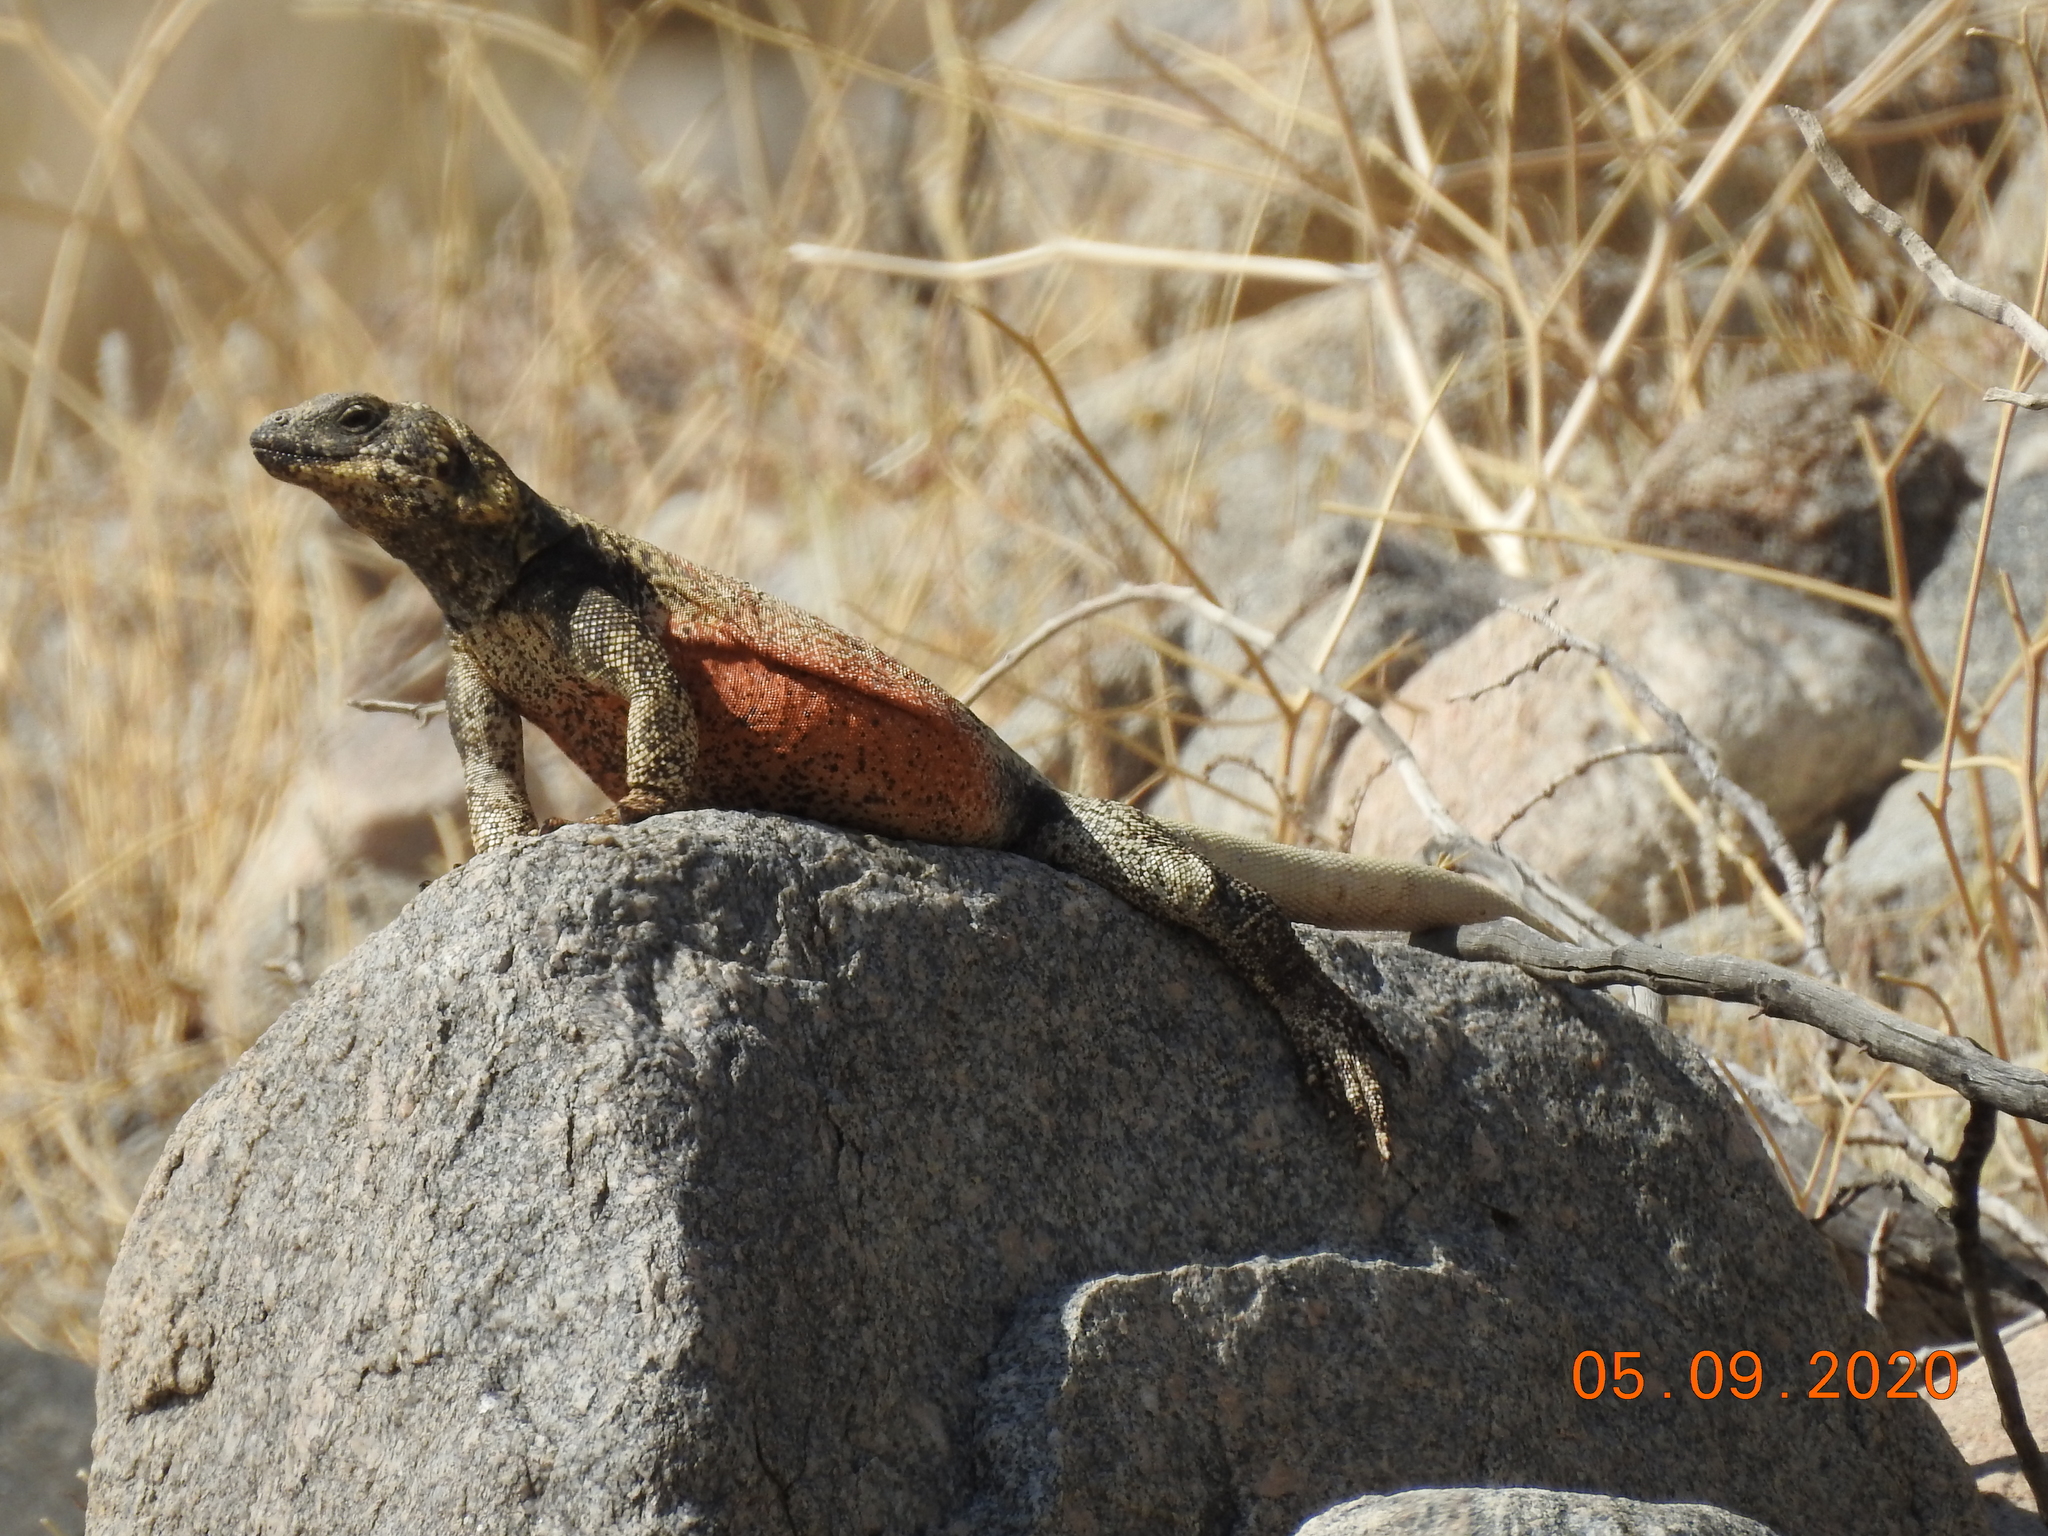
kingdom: Animalia
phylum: Chordata
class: Squamata
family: Iguanidae
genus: Sauromalus
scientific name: Sauromalus ater
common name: Northern chuckwalla
